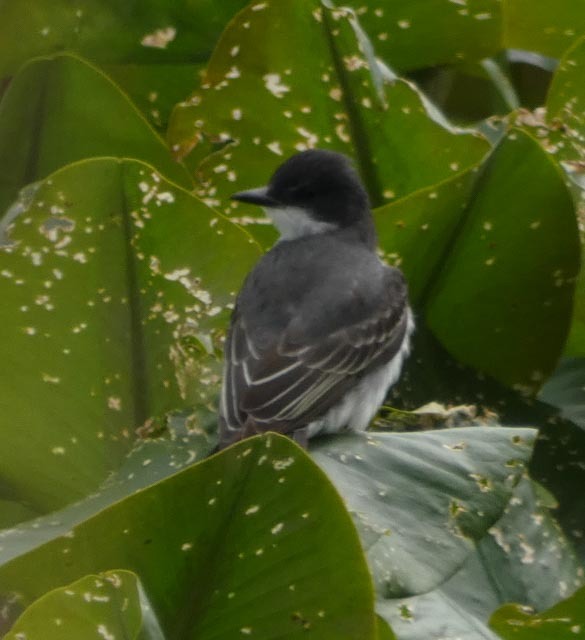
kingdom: Animalia
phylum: Chordata
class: Aves
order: Passeriformes
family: Tyrannidae
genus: Tyrannus
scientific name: Tyrannus tyrannus
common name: Eastern kingbird
